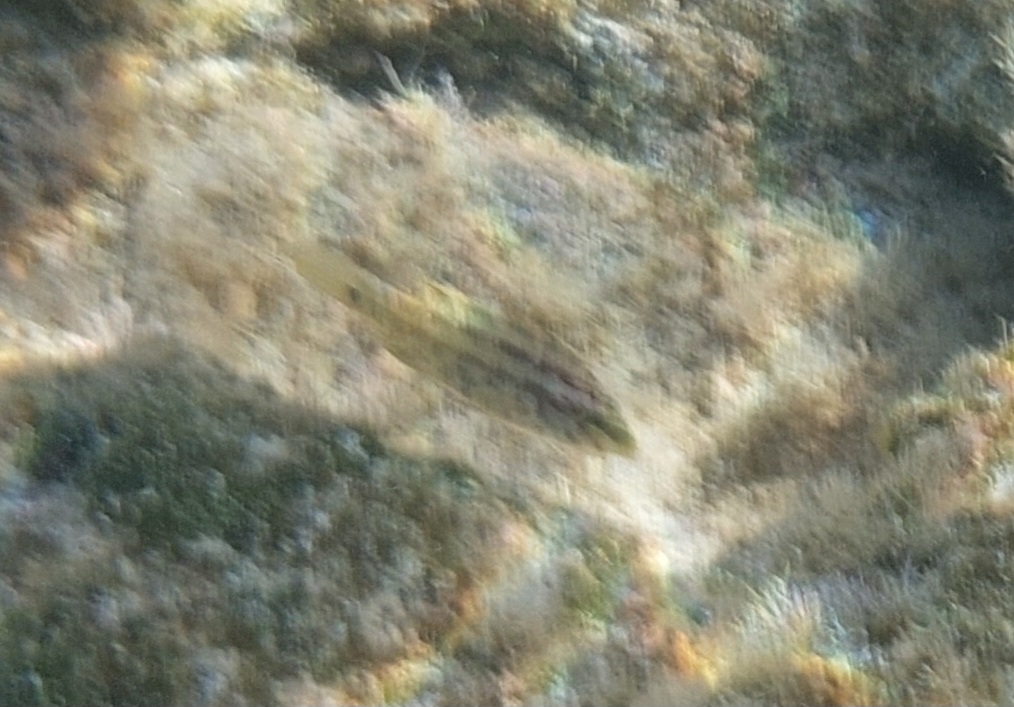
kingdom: Animalia
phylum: Chordata
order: Perciformes
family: Labridae
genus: Symphodus
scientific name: Symphodus roissali
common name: Five-spotted wrasse
